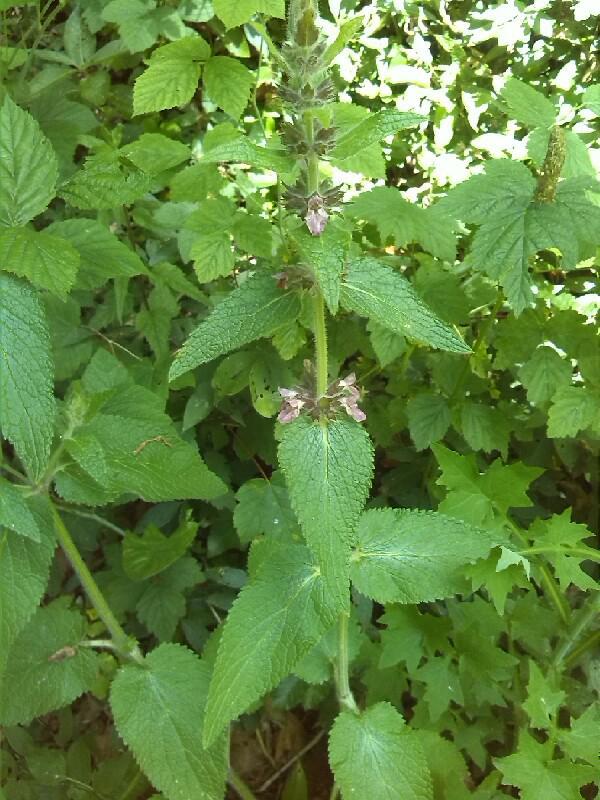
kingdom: Plantae
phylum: Tracheophyta
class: Magnoliopsida
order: Lamiales
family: Lamiaceae
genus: Stachys
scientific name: Stachys alpina
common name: Limestone woundwort
